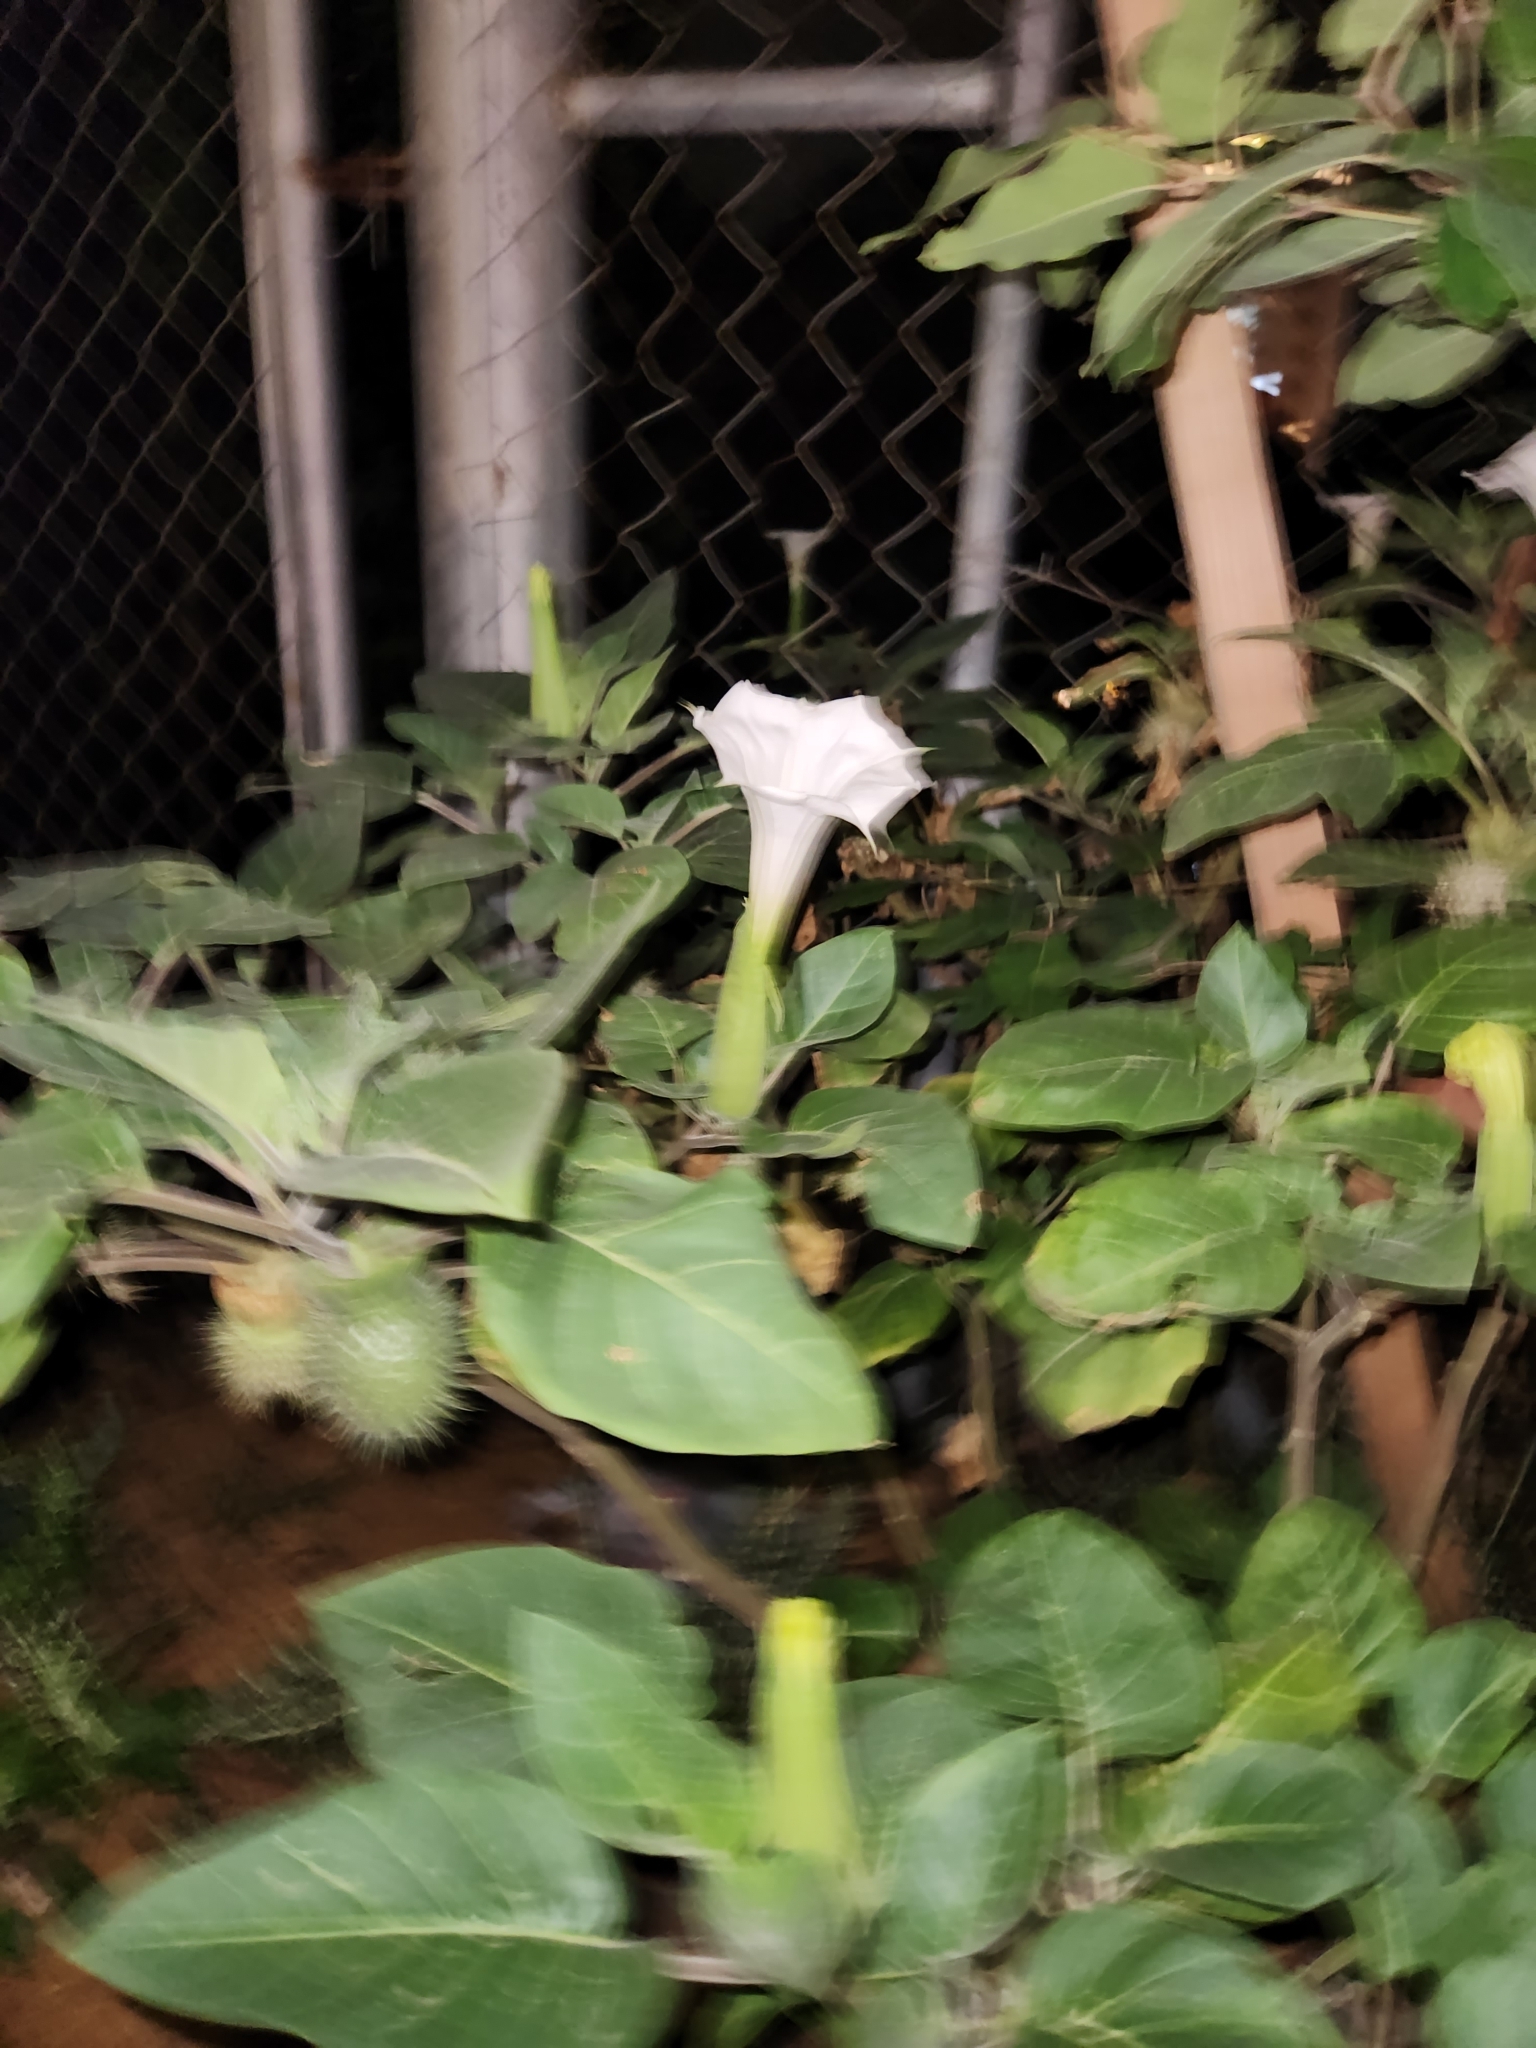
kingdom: Plantae
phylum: Tracheophyta
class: Magnoliopsida
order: Solanales
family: Solanaceae
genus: Datura
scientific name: Datura innoxia
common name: Downy thorn-apple
